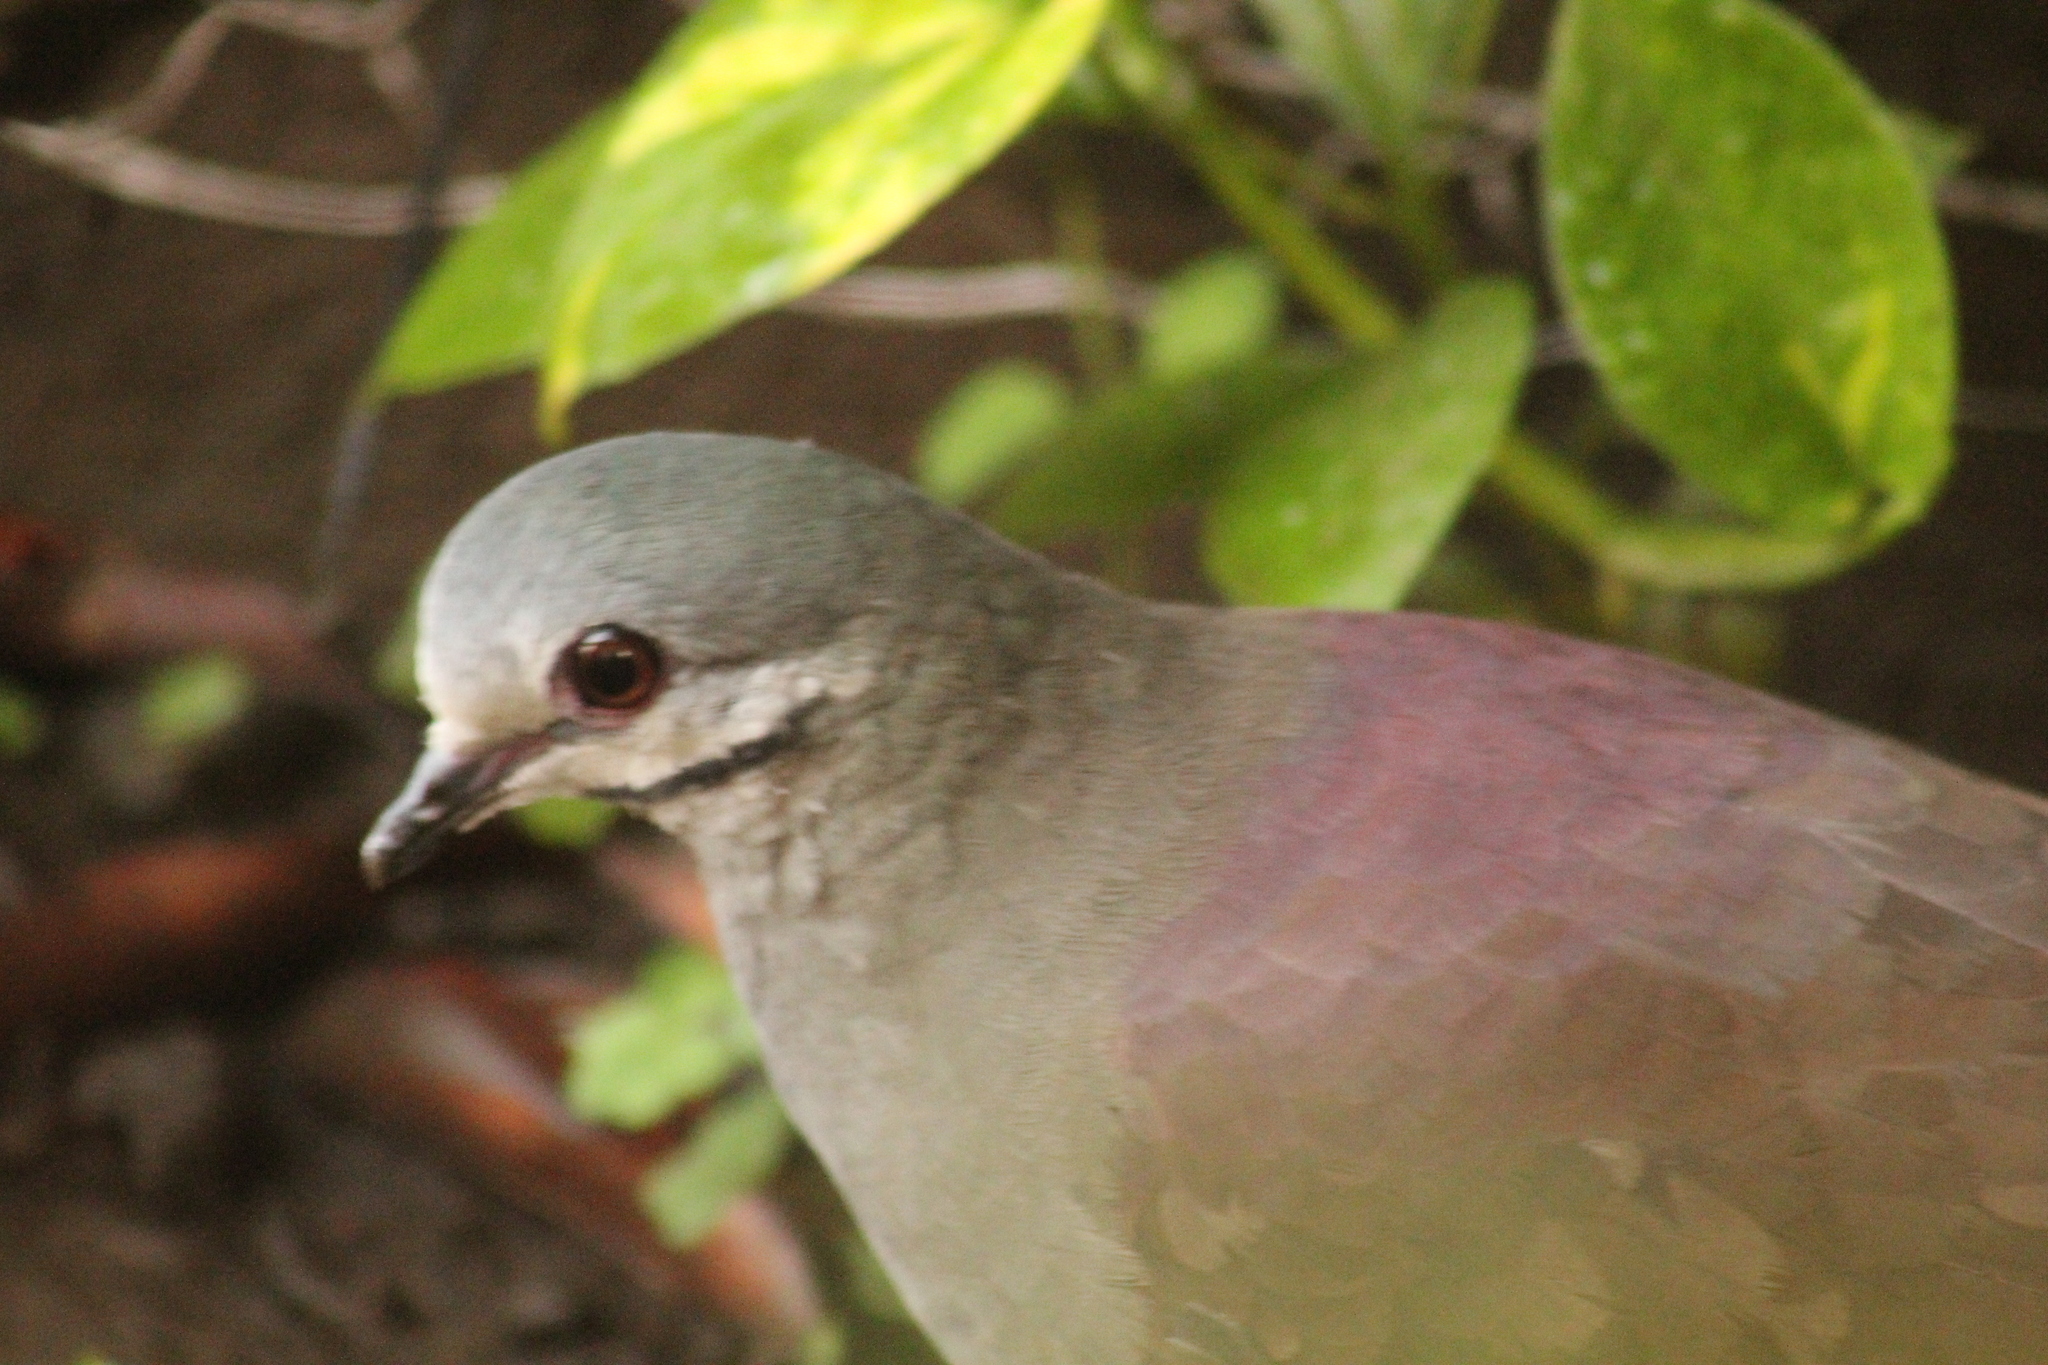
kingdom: Animalia
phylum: Chordata
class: Aves
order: Columbiformes
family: Columbidae
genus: Zentrygon
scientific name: Zentrygon carrikeri
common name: Tuxtla quail-dove
